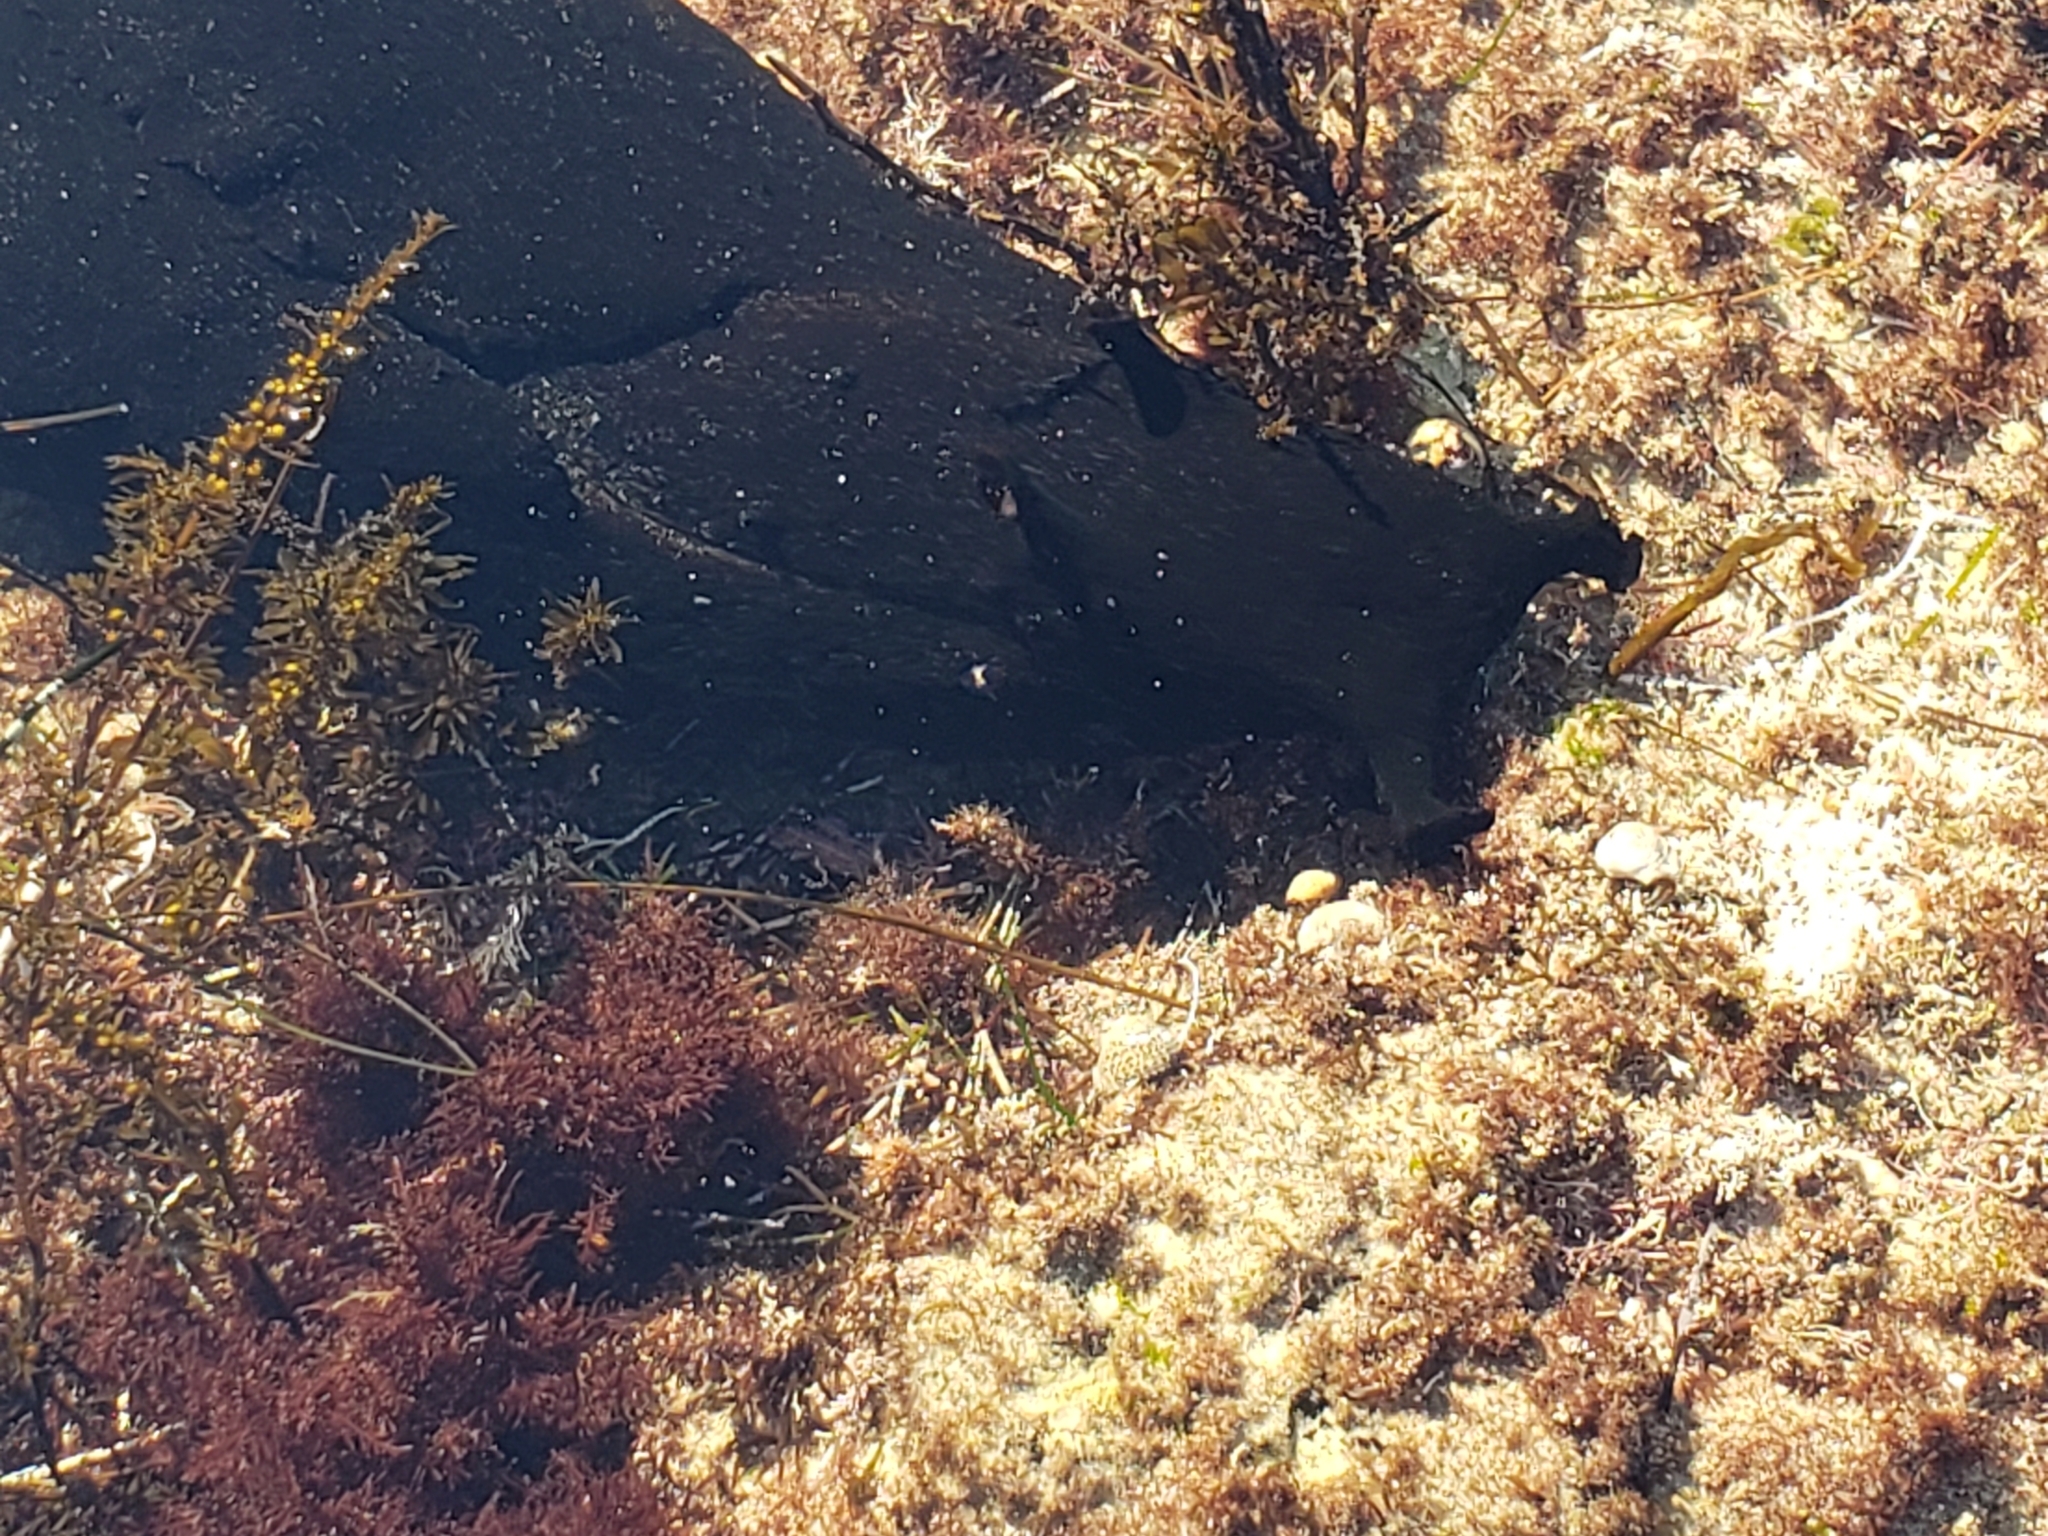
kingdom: Animalia
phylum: Mollusca
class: Gastropoda
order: Aplysiida
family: Aplysiidae
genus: Aplysia
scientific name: Aplysia vaccaria
